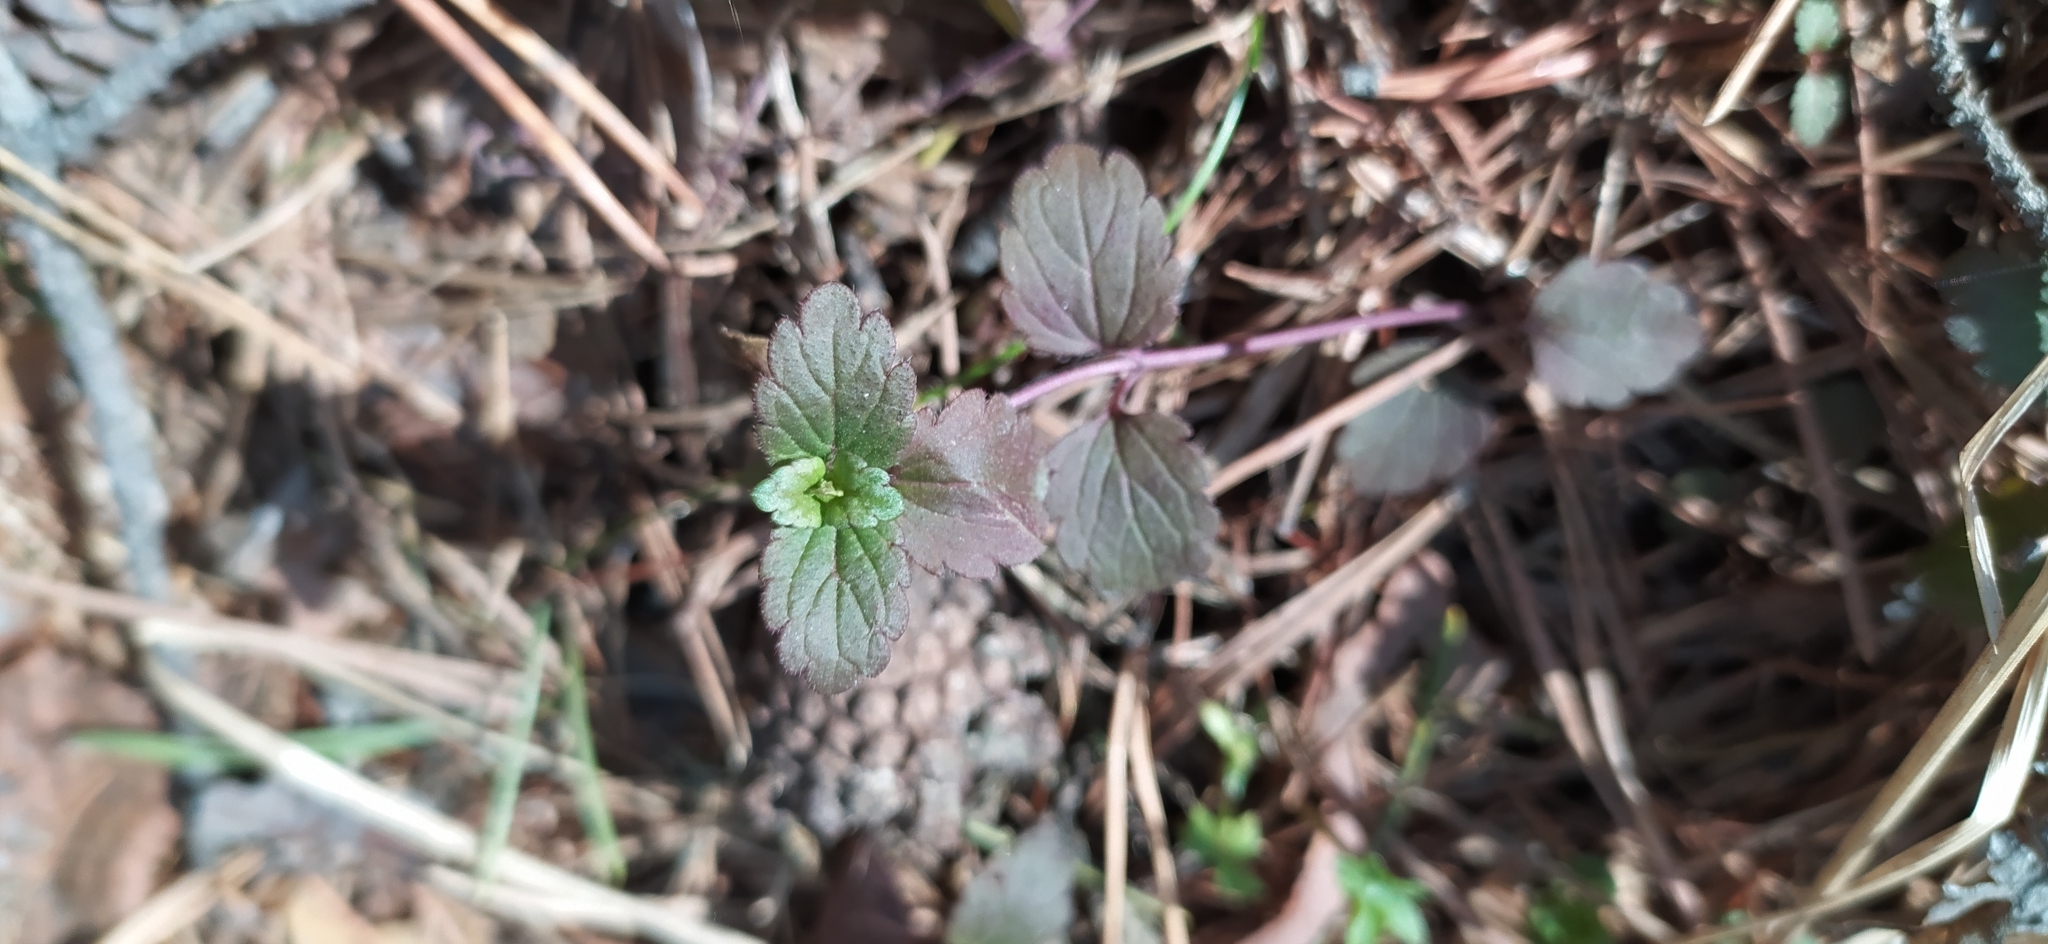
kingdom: Plantae
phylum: Tracheophyta
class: Magnoliopsida
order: Lamiales
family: Plantaginaceae
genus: Veronica
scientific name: Veronica chamaedrys
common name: Germander speedwell
